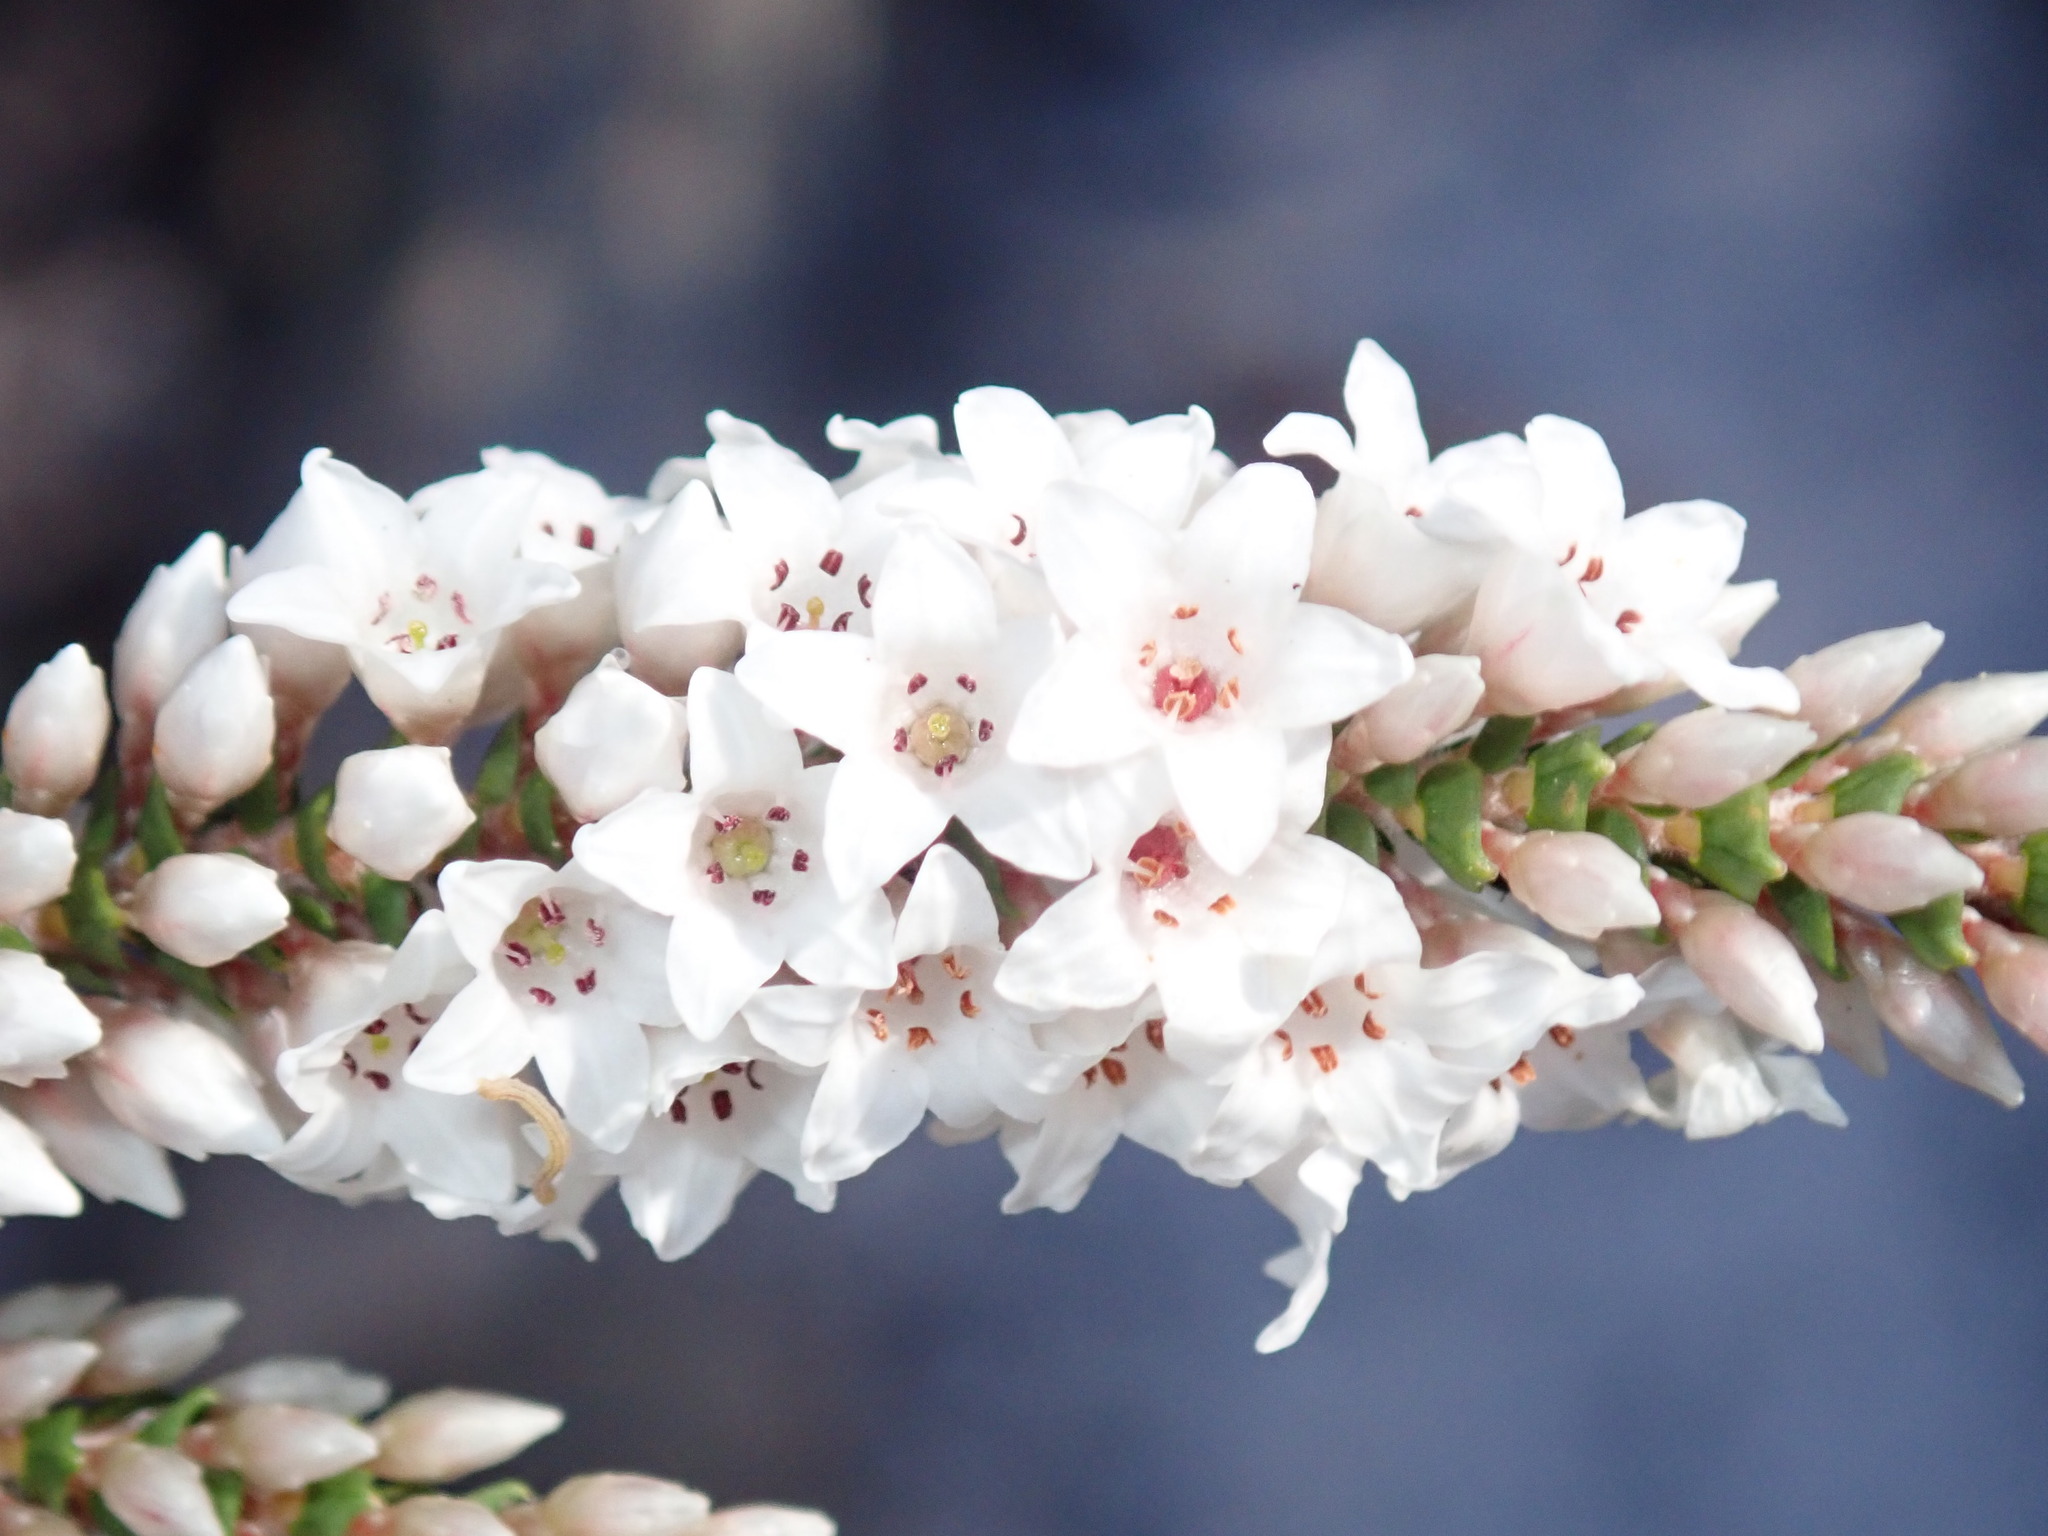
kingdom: Plantae
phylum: Tracheophyta
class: Magnoliopsida
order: Ericales
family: Ericaceae
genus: Epacris
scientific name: Epacris microphylla
